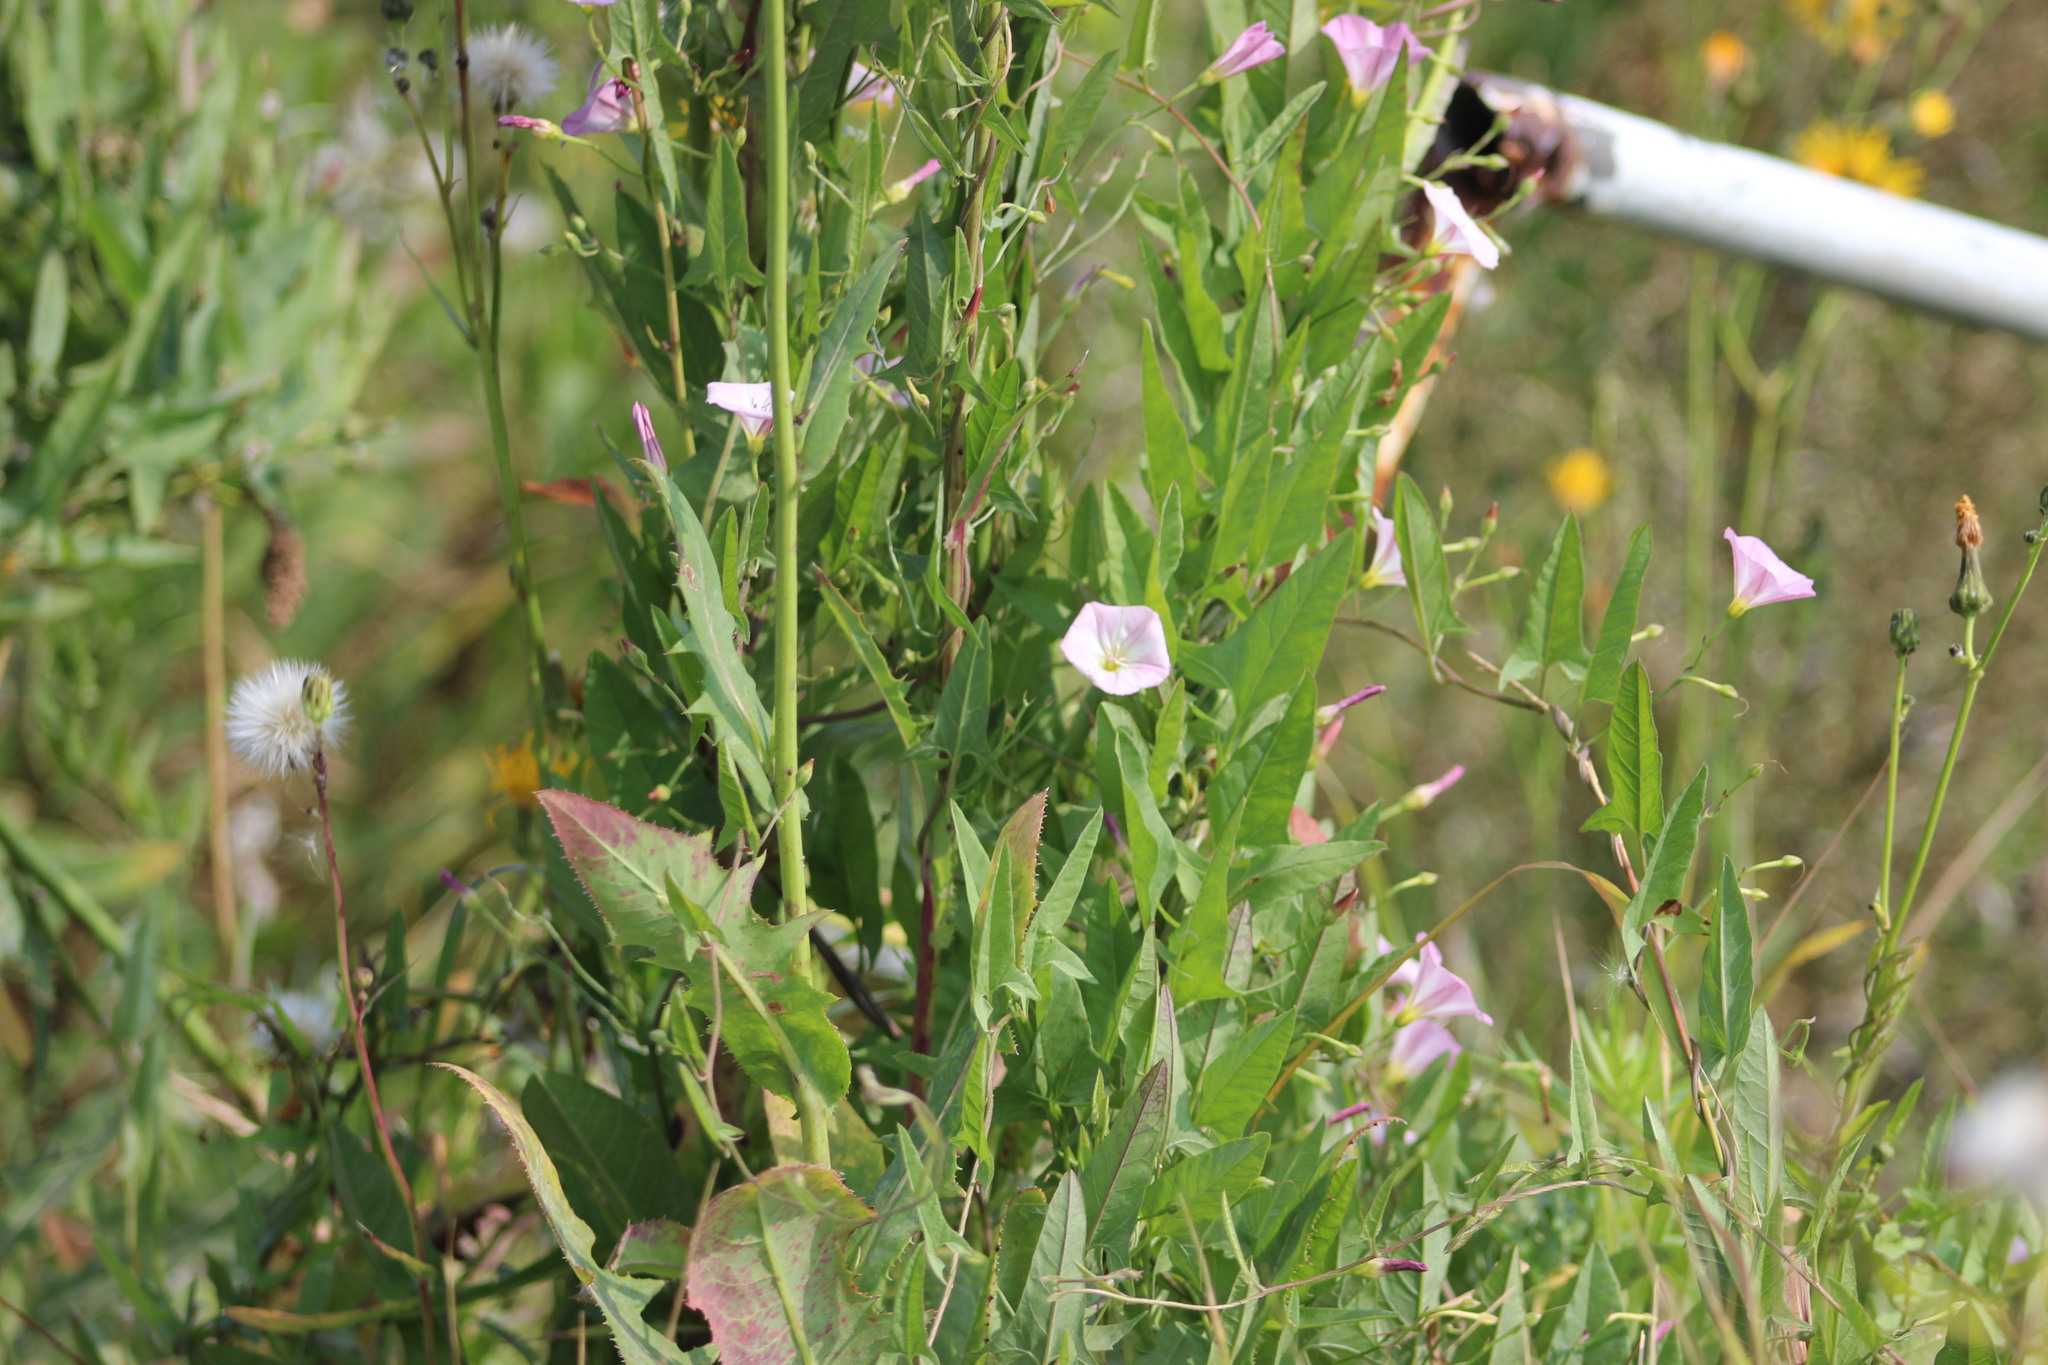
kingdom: Plantae
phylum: Tracheophyta
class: Magnoliopsida
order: Solanales
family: Convolvulaceae
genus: Convolvulus
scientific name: Convolvulus arvensis
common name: Field bindweed
